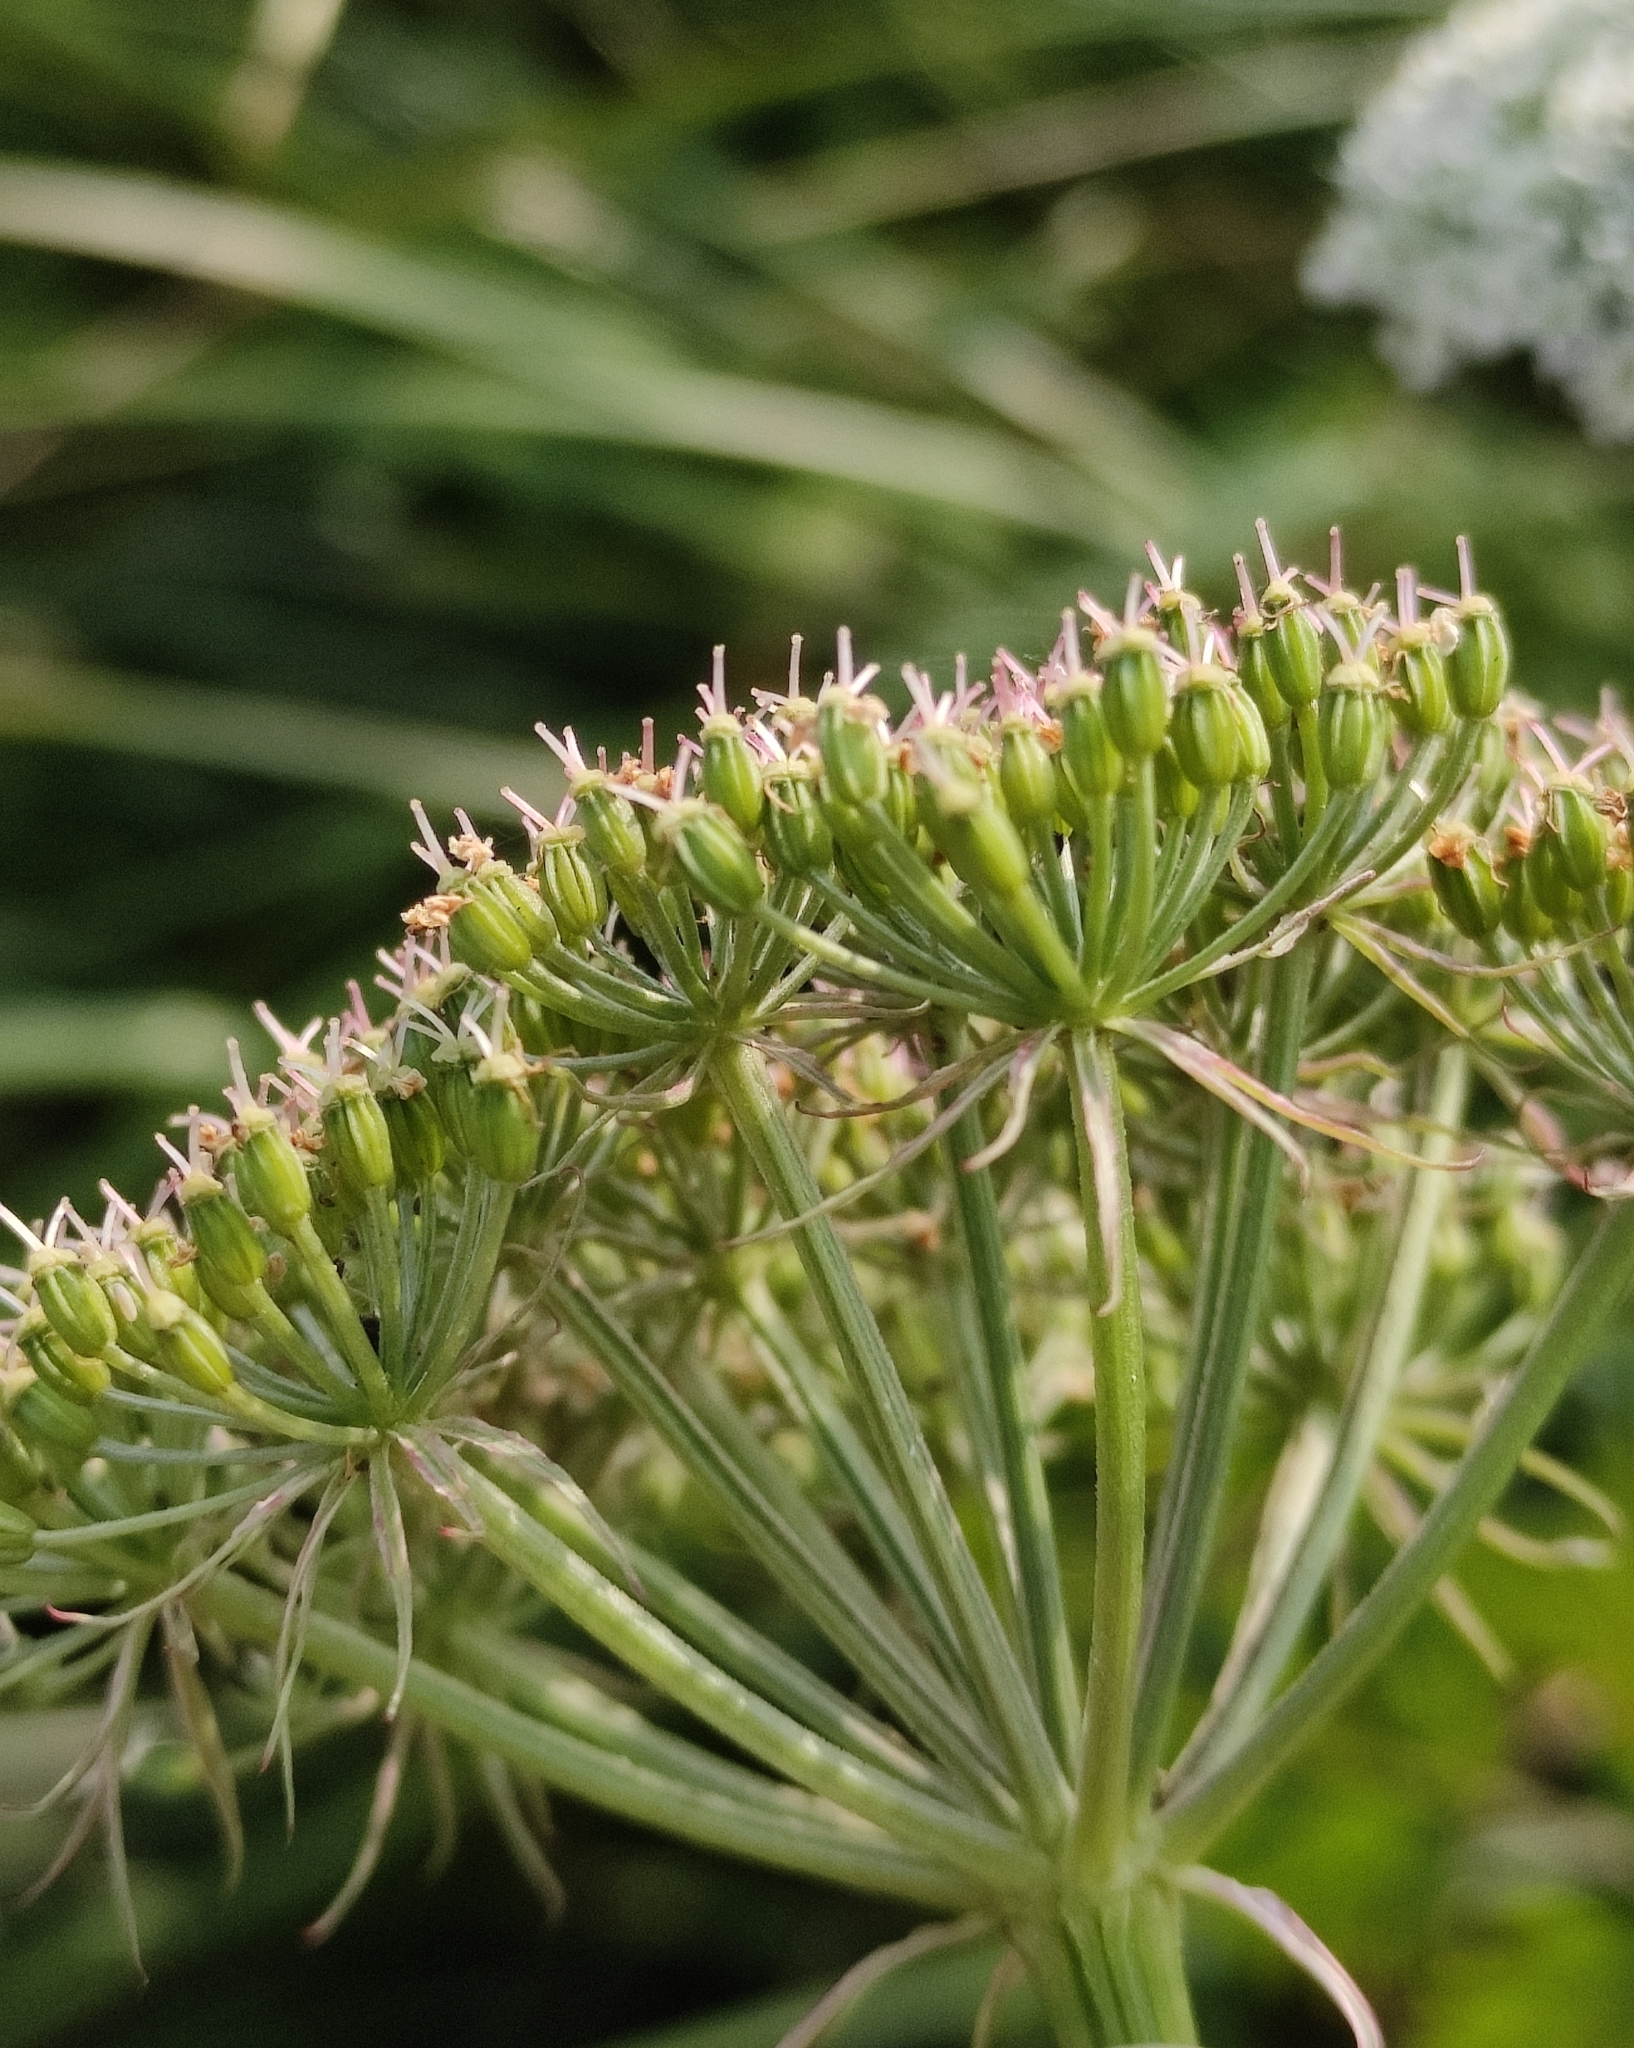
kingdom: Plantae
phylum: Tracheophyta
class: Magnoliopsida
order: Apiales
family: Apiaceae
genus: Conioselinum
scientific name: Conioselinum tataricum
